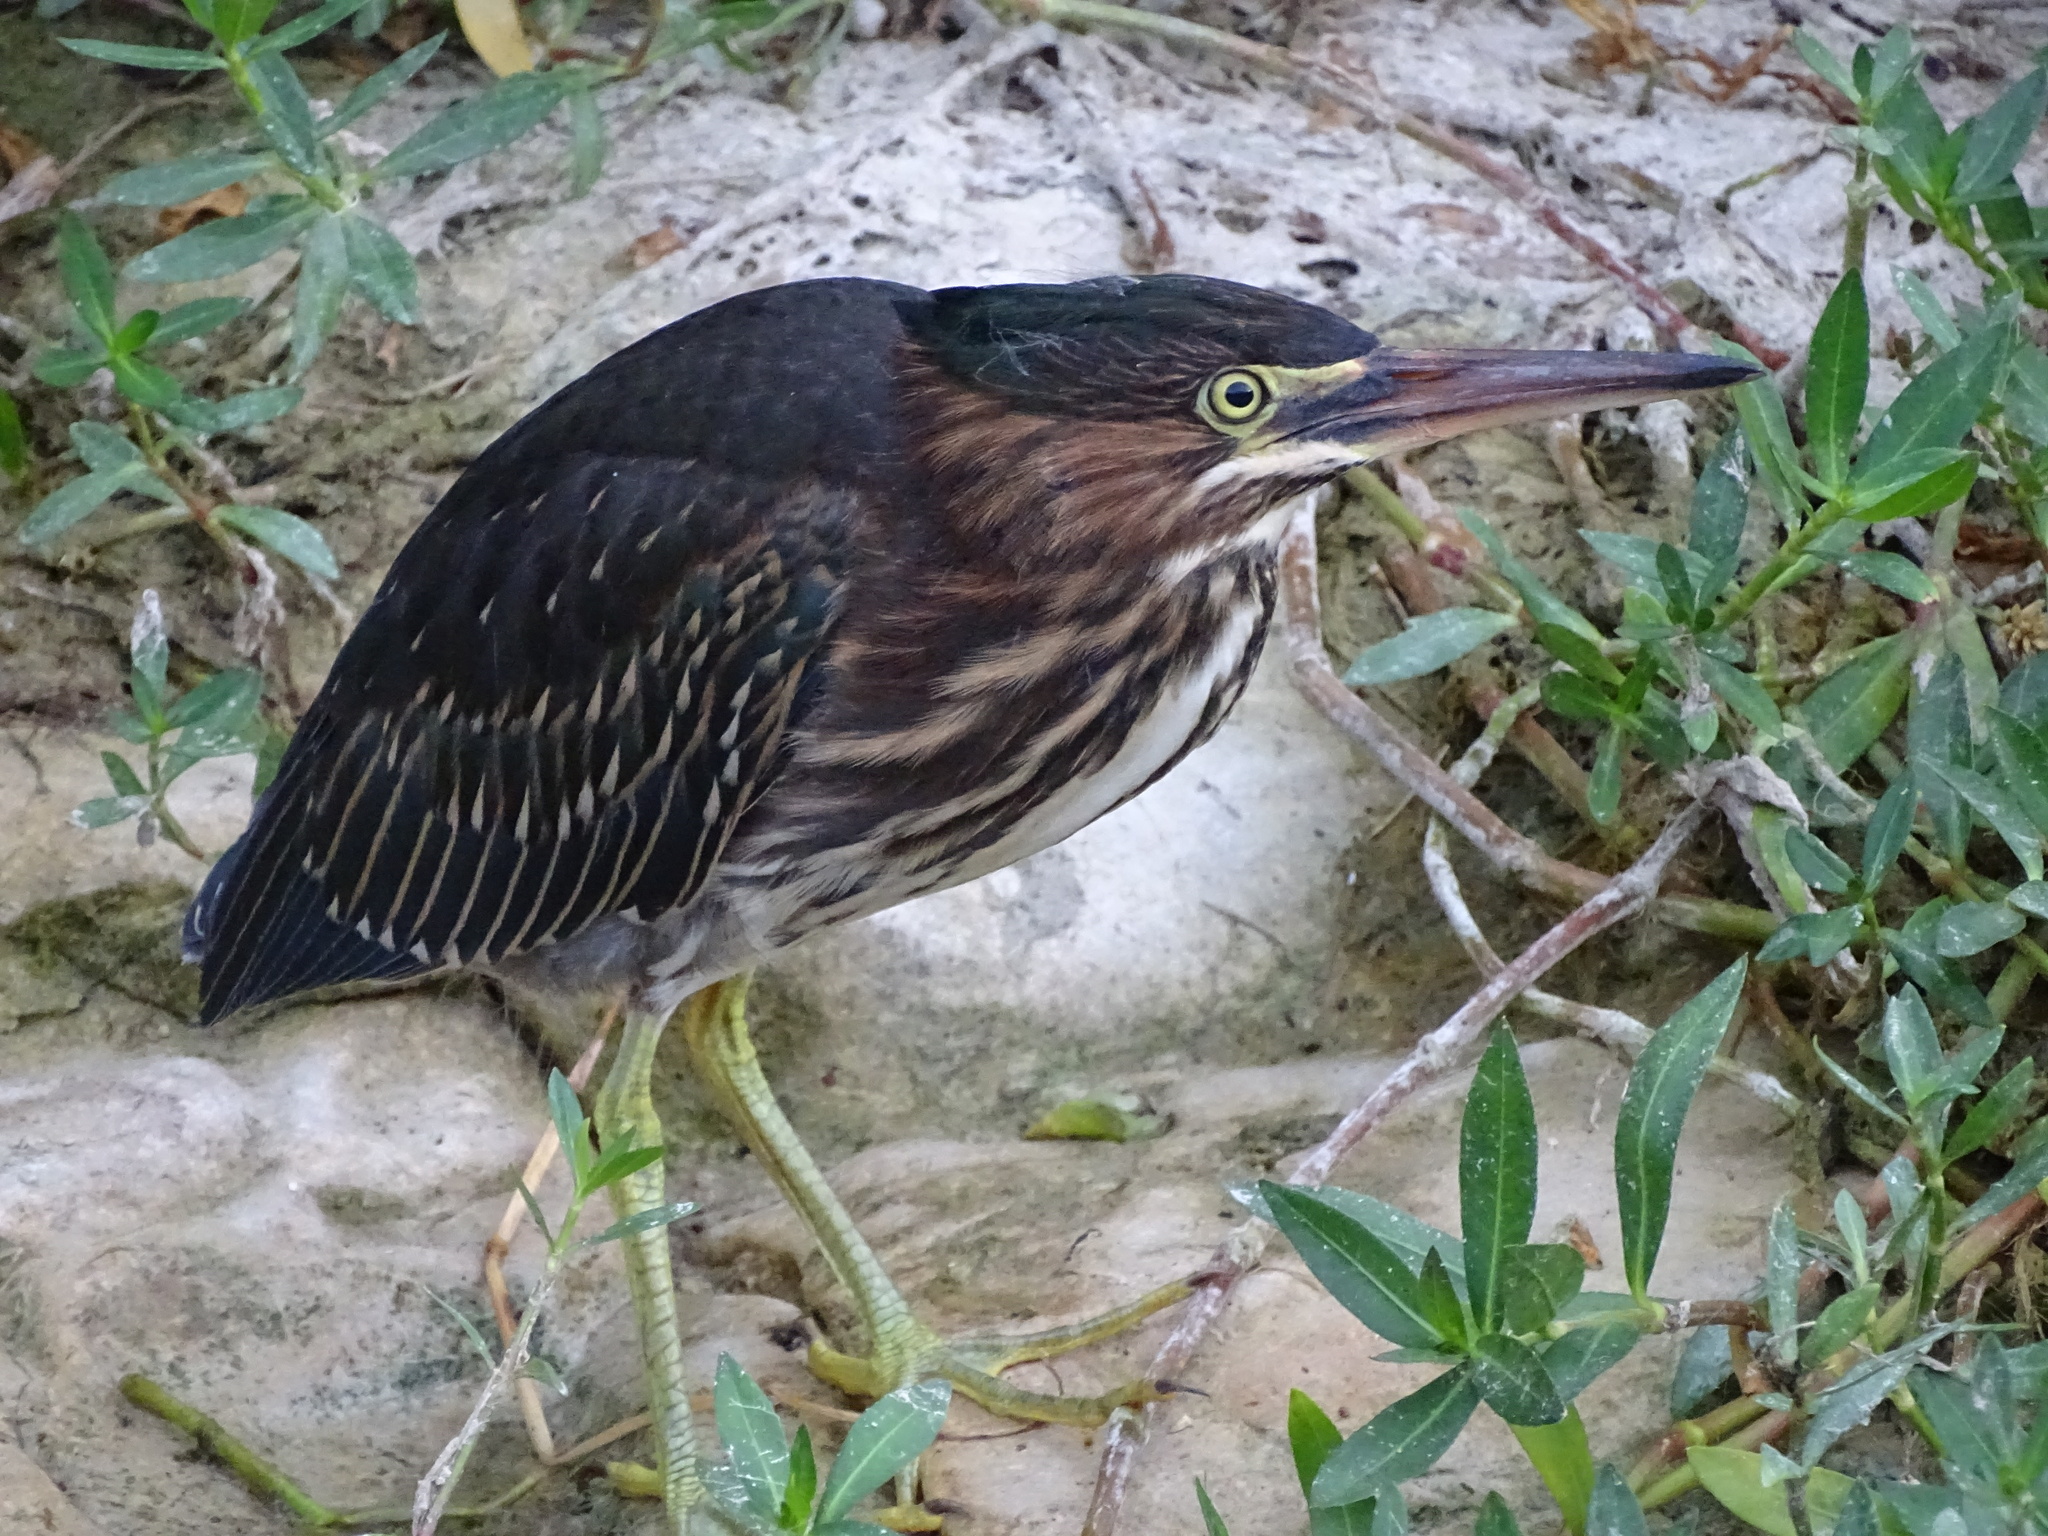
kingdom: Animalia
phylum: Chordata
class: Aves
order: Pelecaniformes
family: Ardeidae
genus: Butorides
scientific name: Butorides virescens
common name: Green heron
